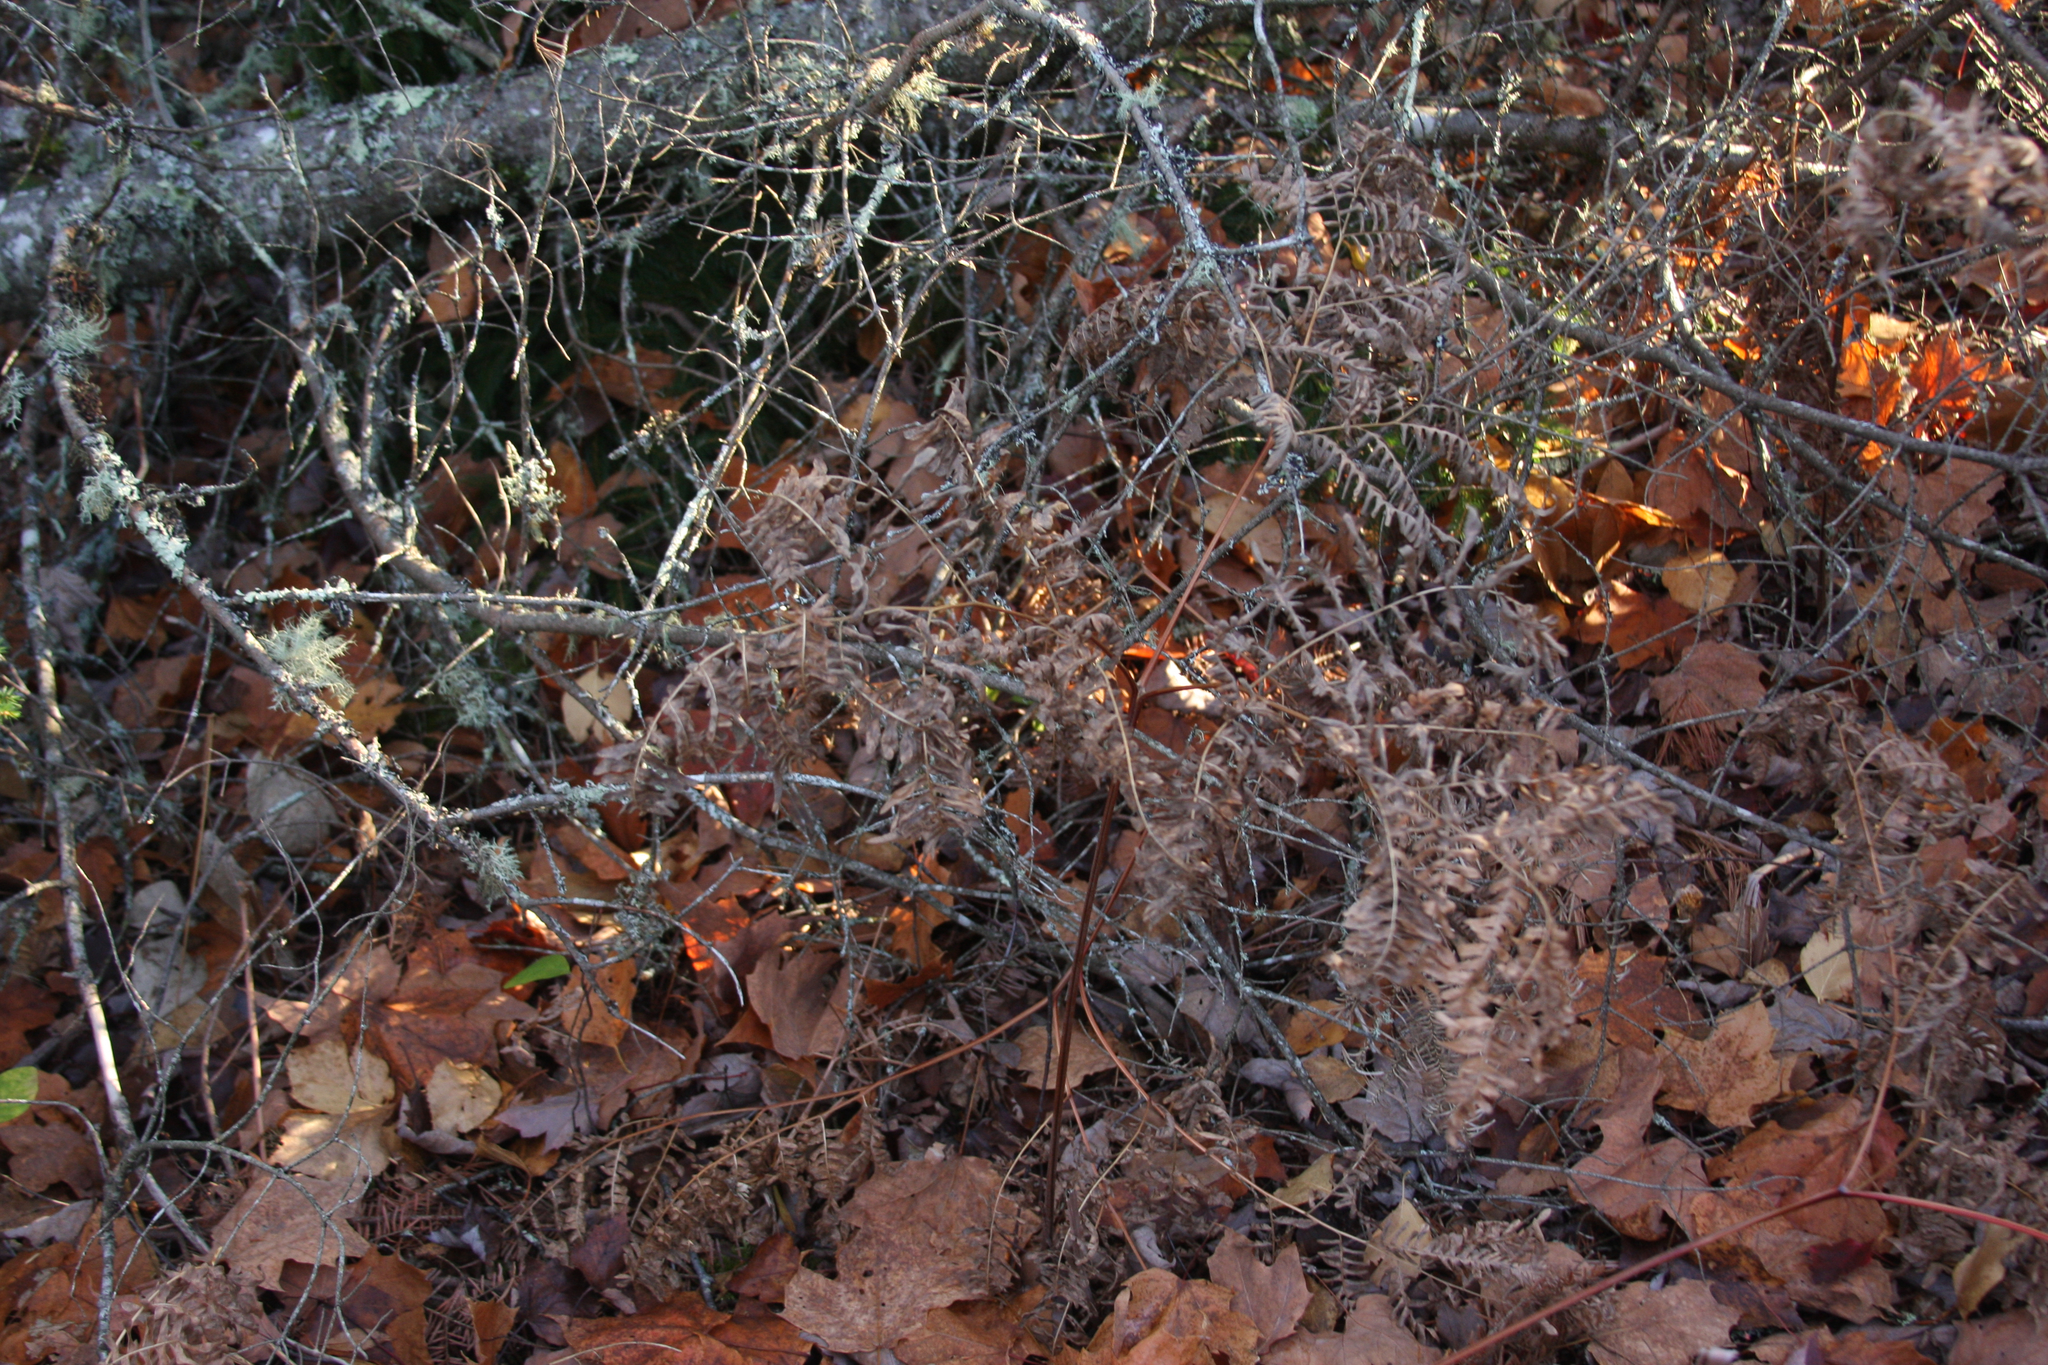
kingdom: Plantae
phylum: Tracheophyta
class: Polypodiopsida
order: Polypodiales
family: Dennstaedtiaceae
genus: Pteridium
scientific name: Pteridium aquilinum
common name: Bracken
